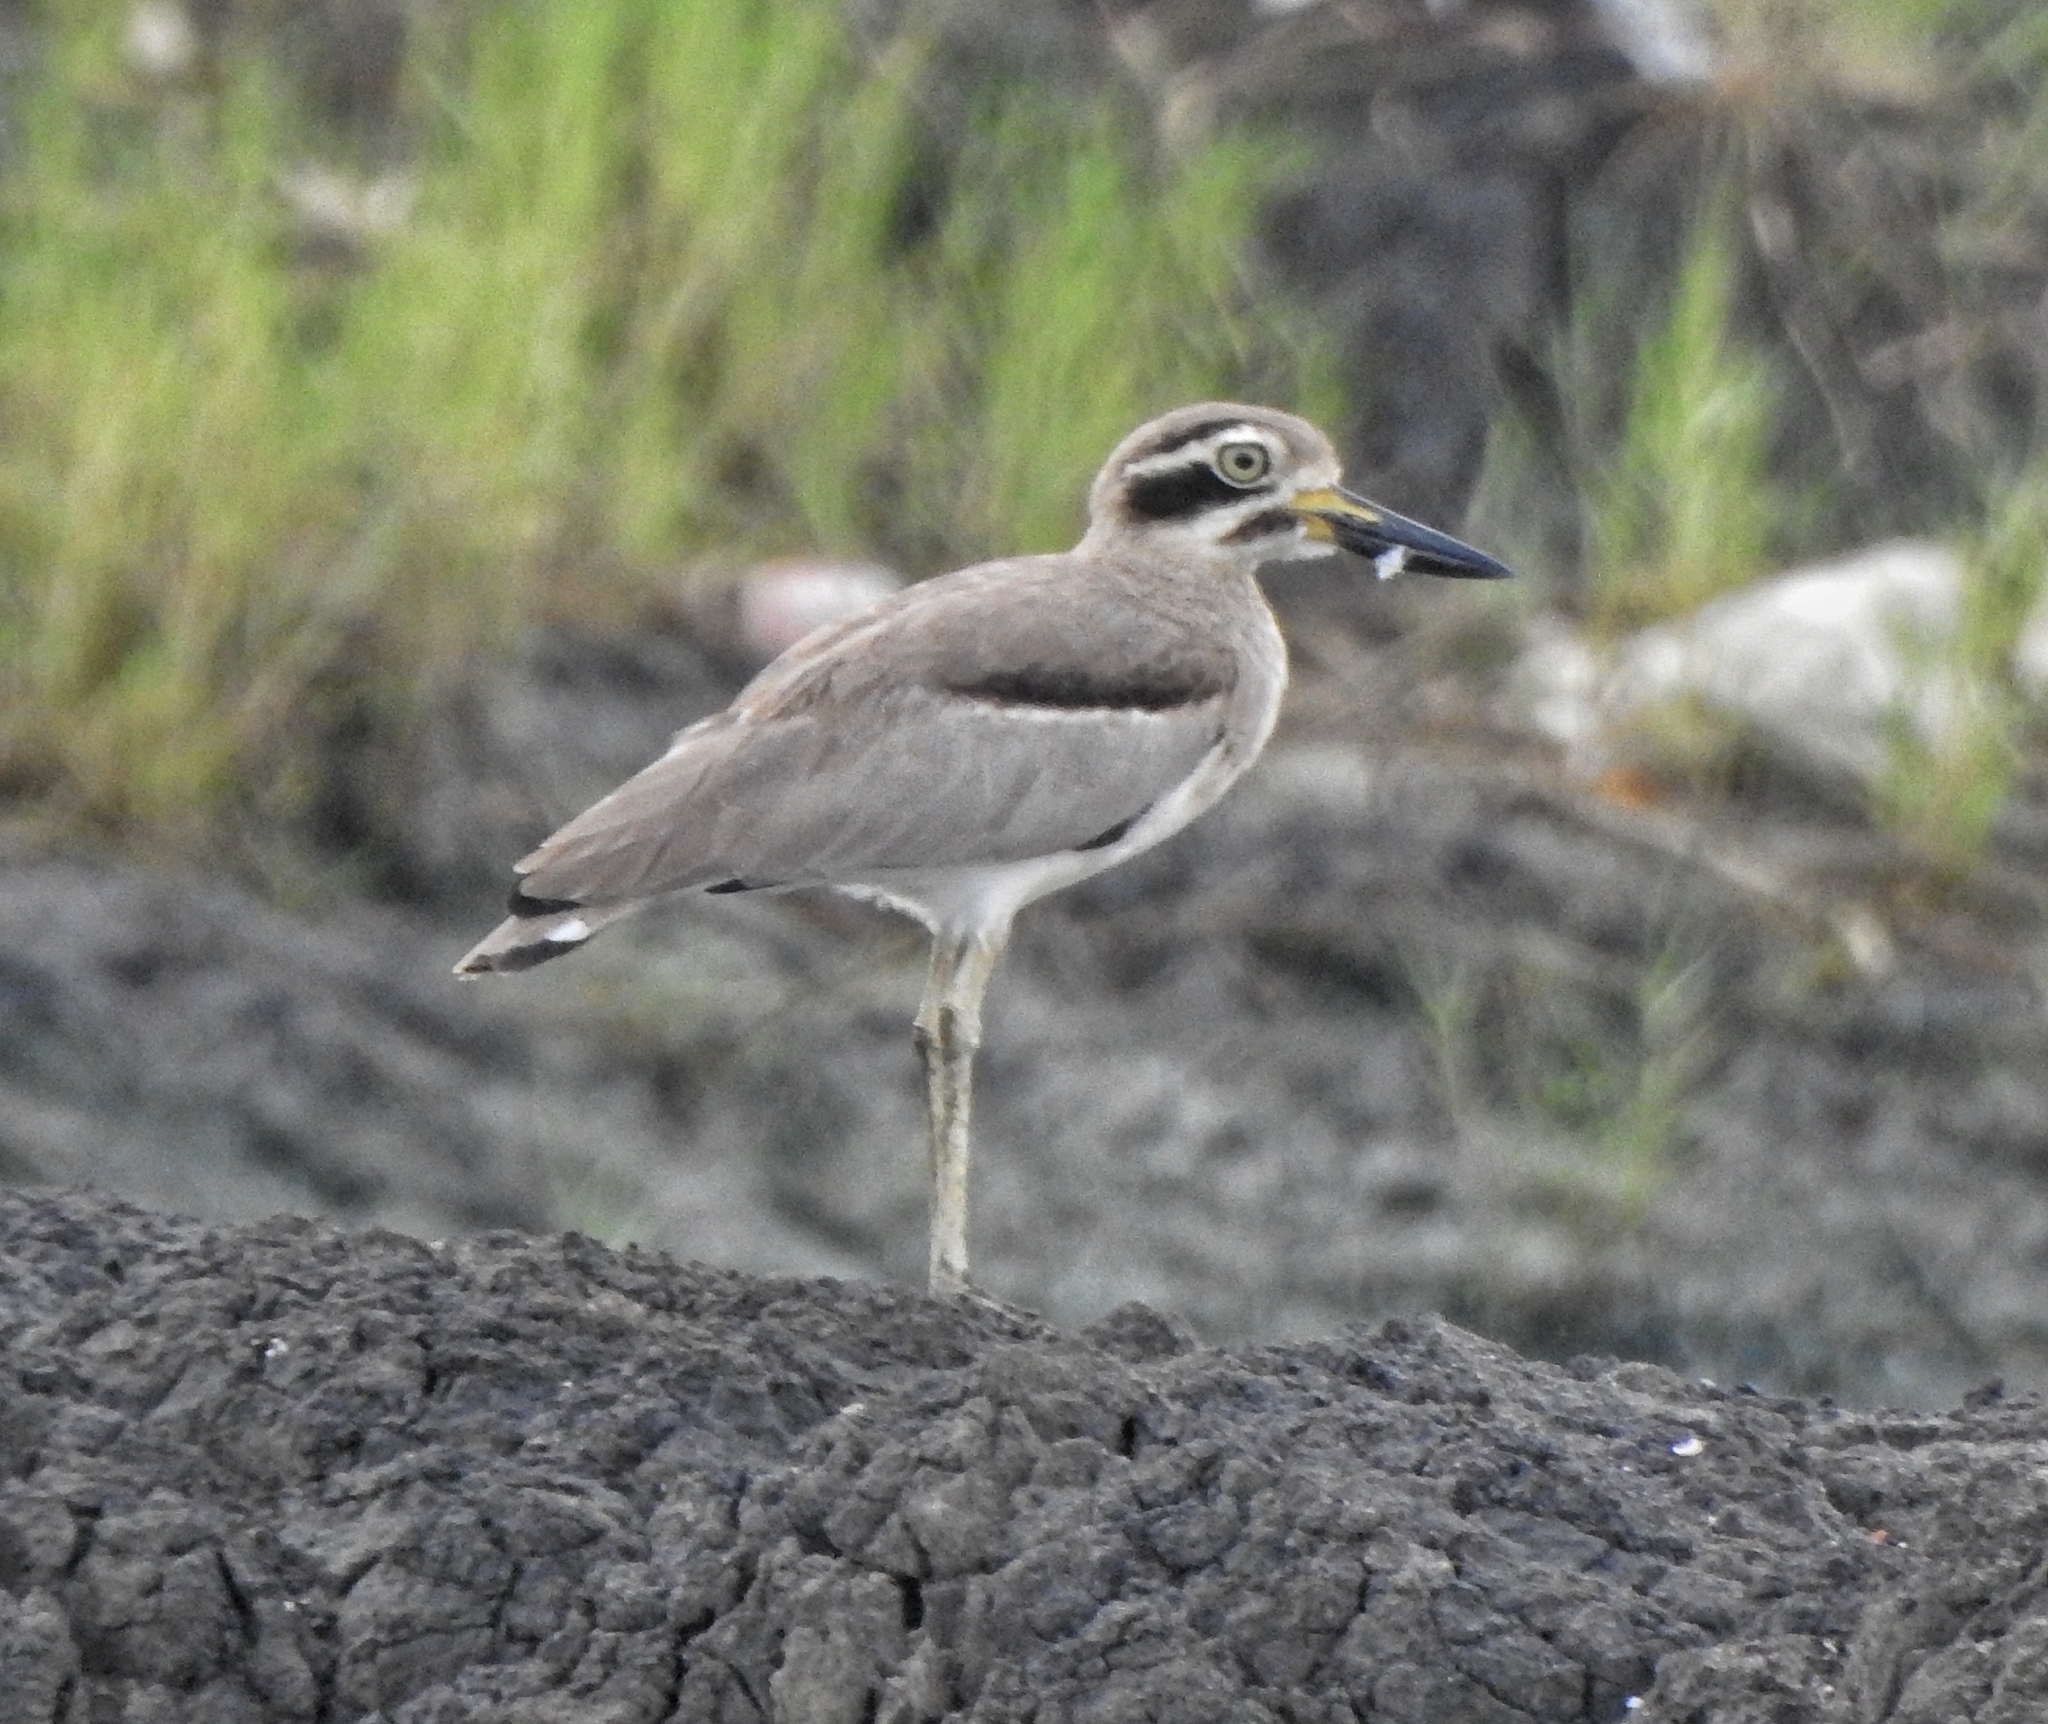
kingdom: Animalia
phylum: Chordata
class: Aves
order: Charadriiformes
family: Burhinidae
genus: Esacus
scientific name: Esacus recurvirostris
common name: Great stone-curlew
